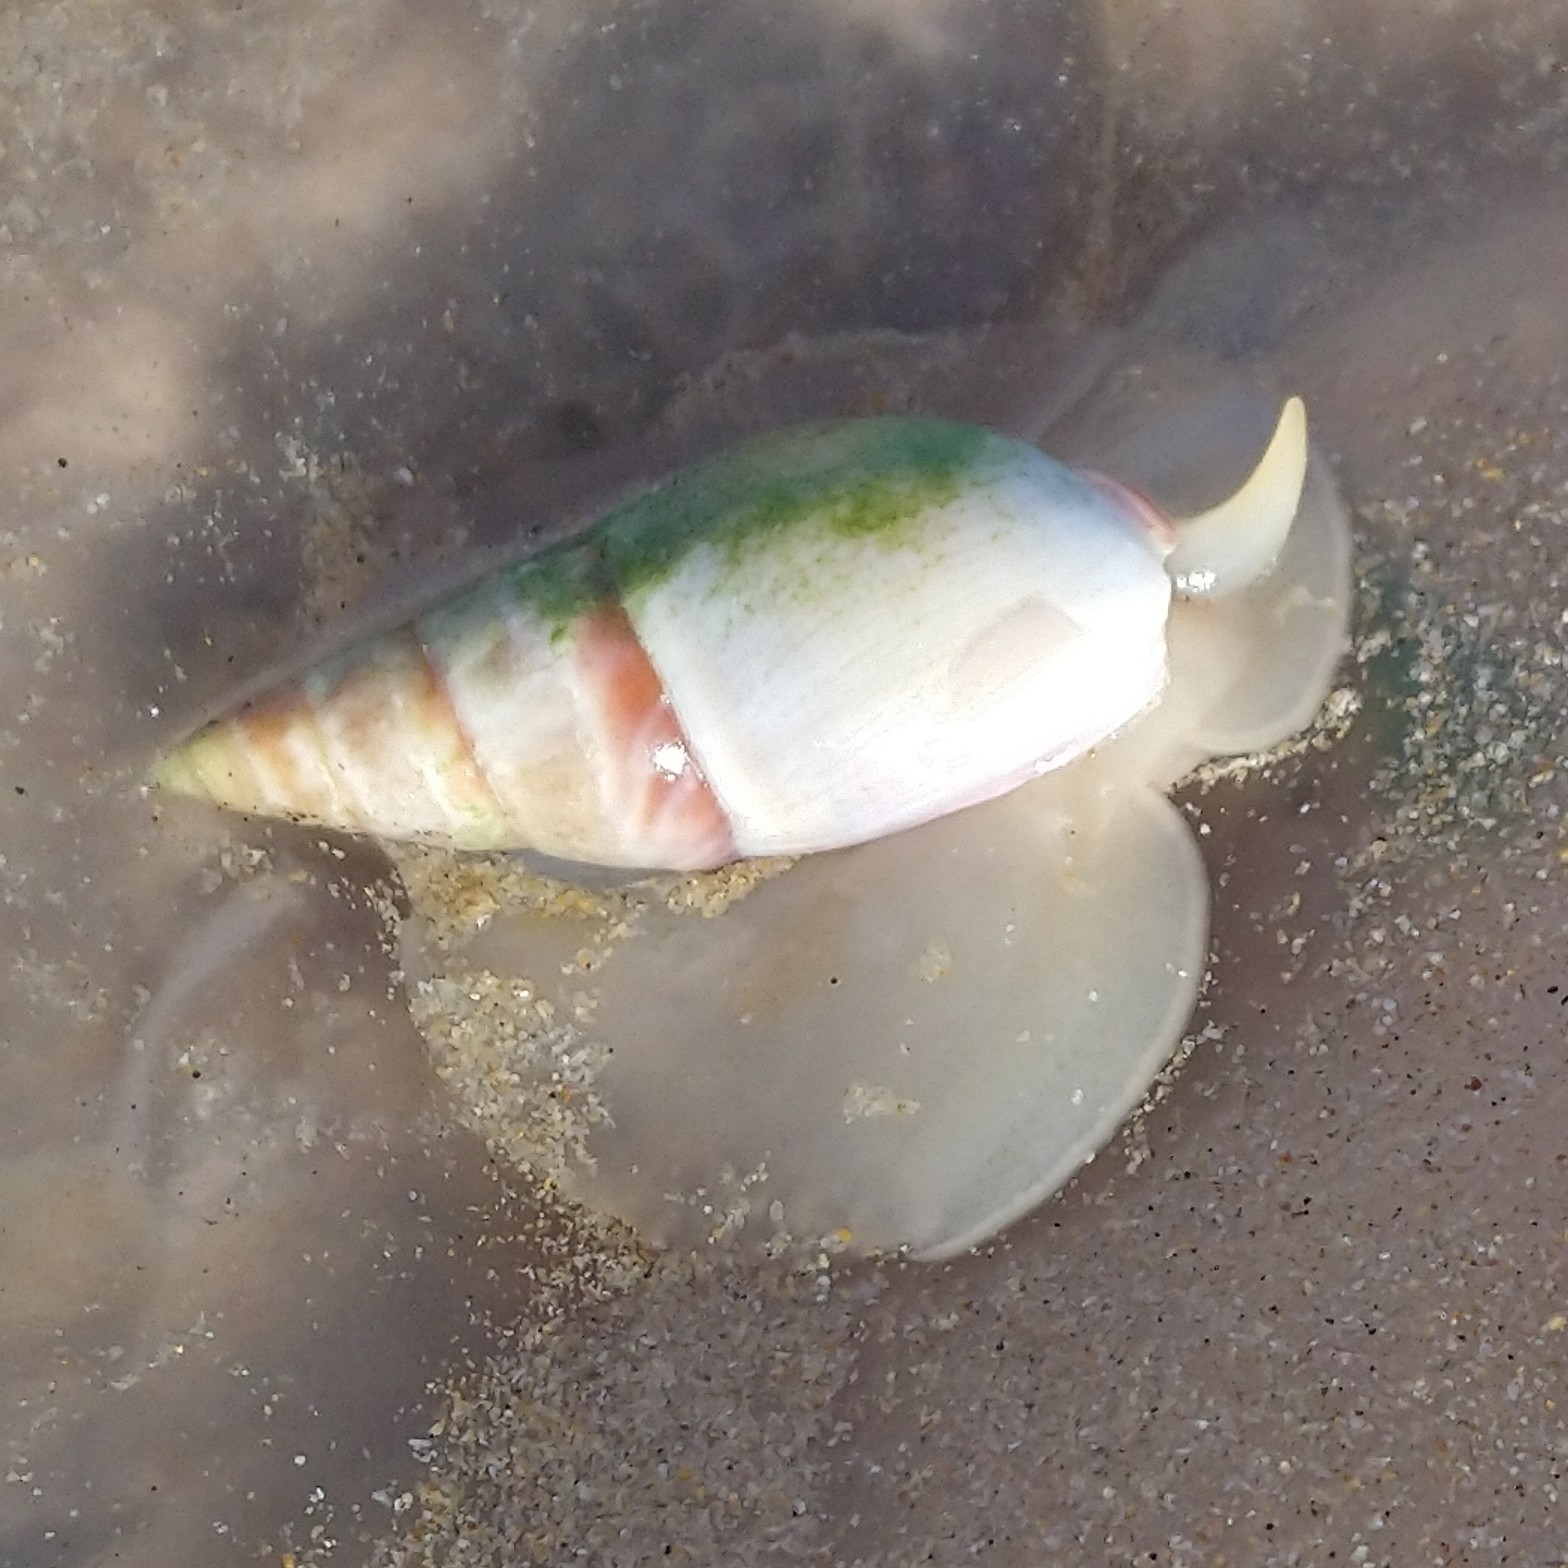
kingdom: Animalia
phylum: Mollusca
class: Gastropoda
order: Neogastropoda
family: Nassariidae
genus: Bullia
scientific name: Bullia rhodostoma
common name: Smooth plough shell
